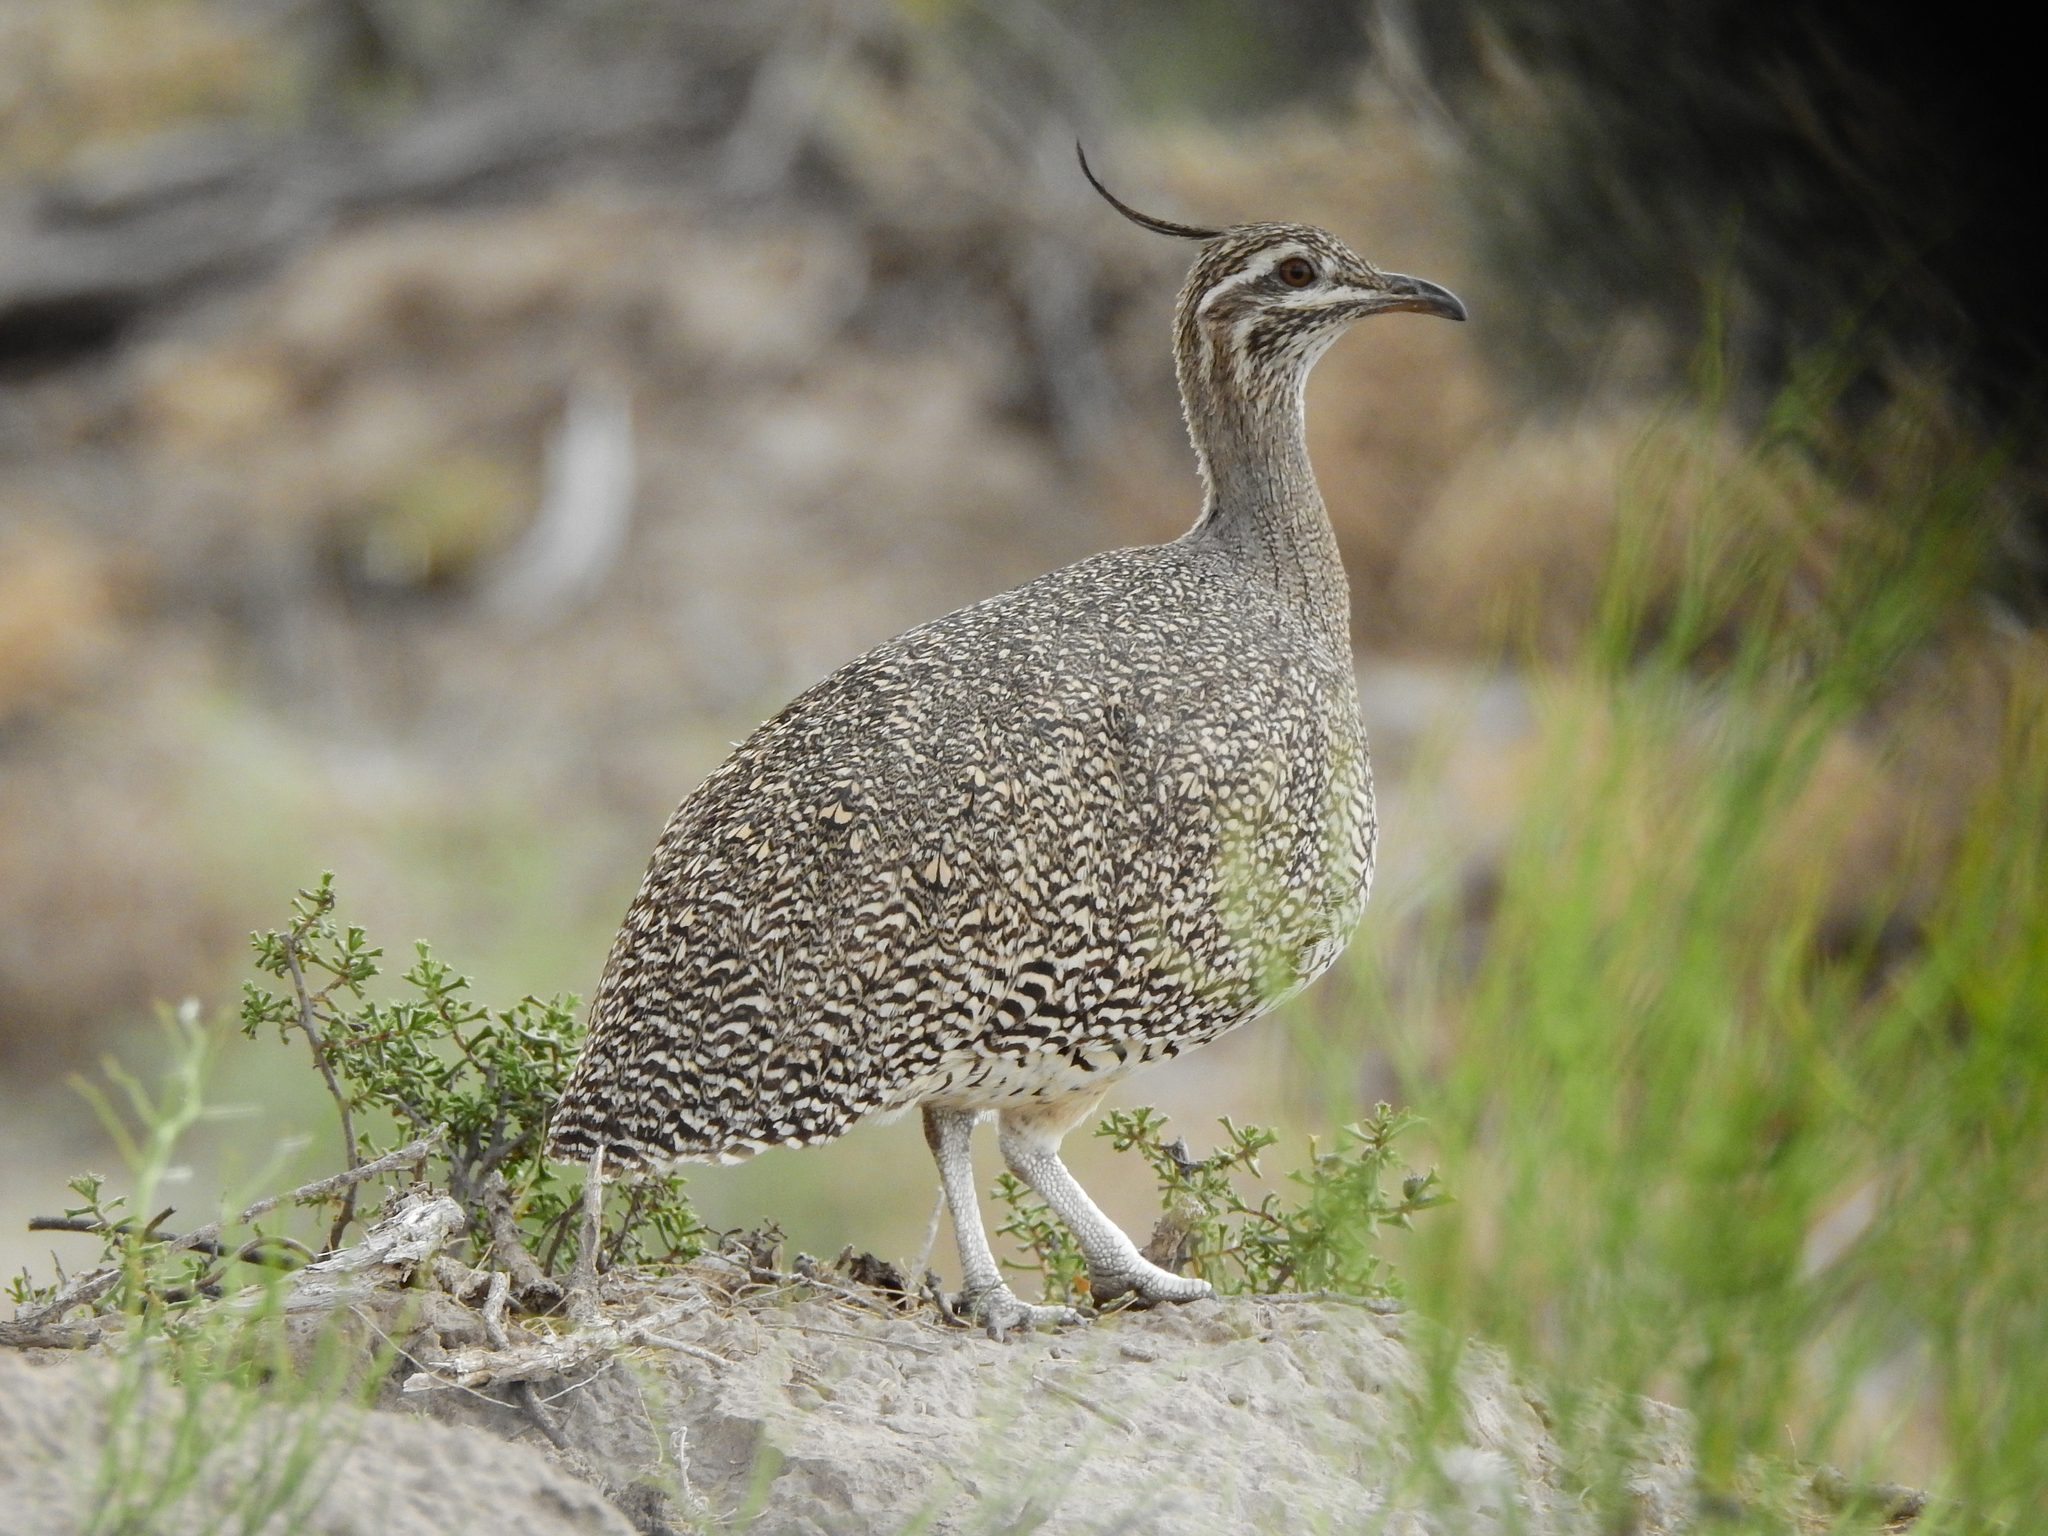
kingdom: Animalia
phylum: Chordata
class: Aves
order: Tinamiformes
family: Tinamidae
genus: Eudromia
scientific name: Eudromia elegans
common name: Elegant crested tinamou
